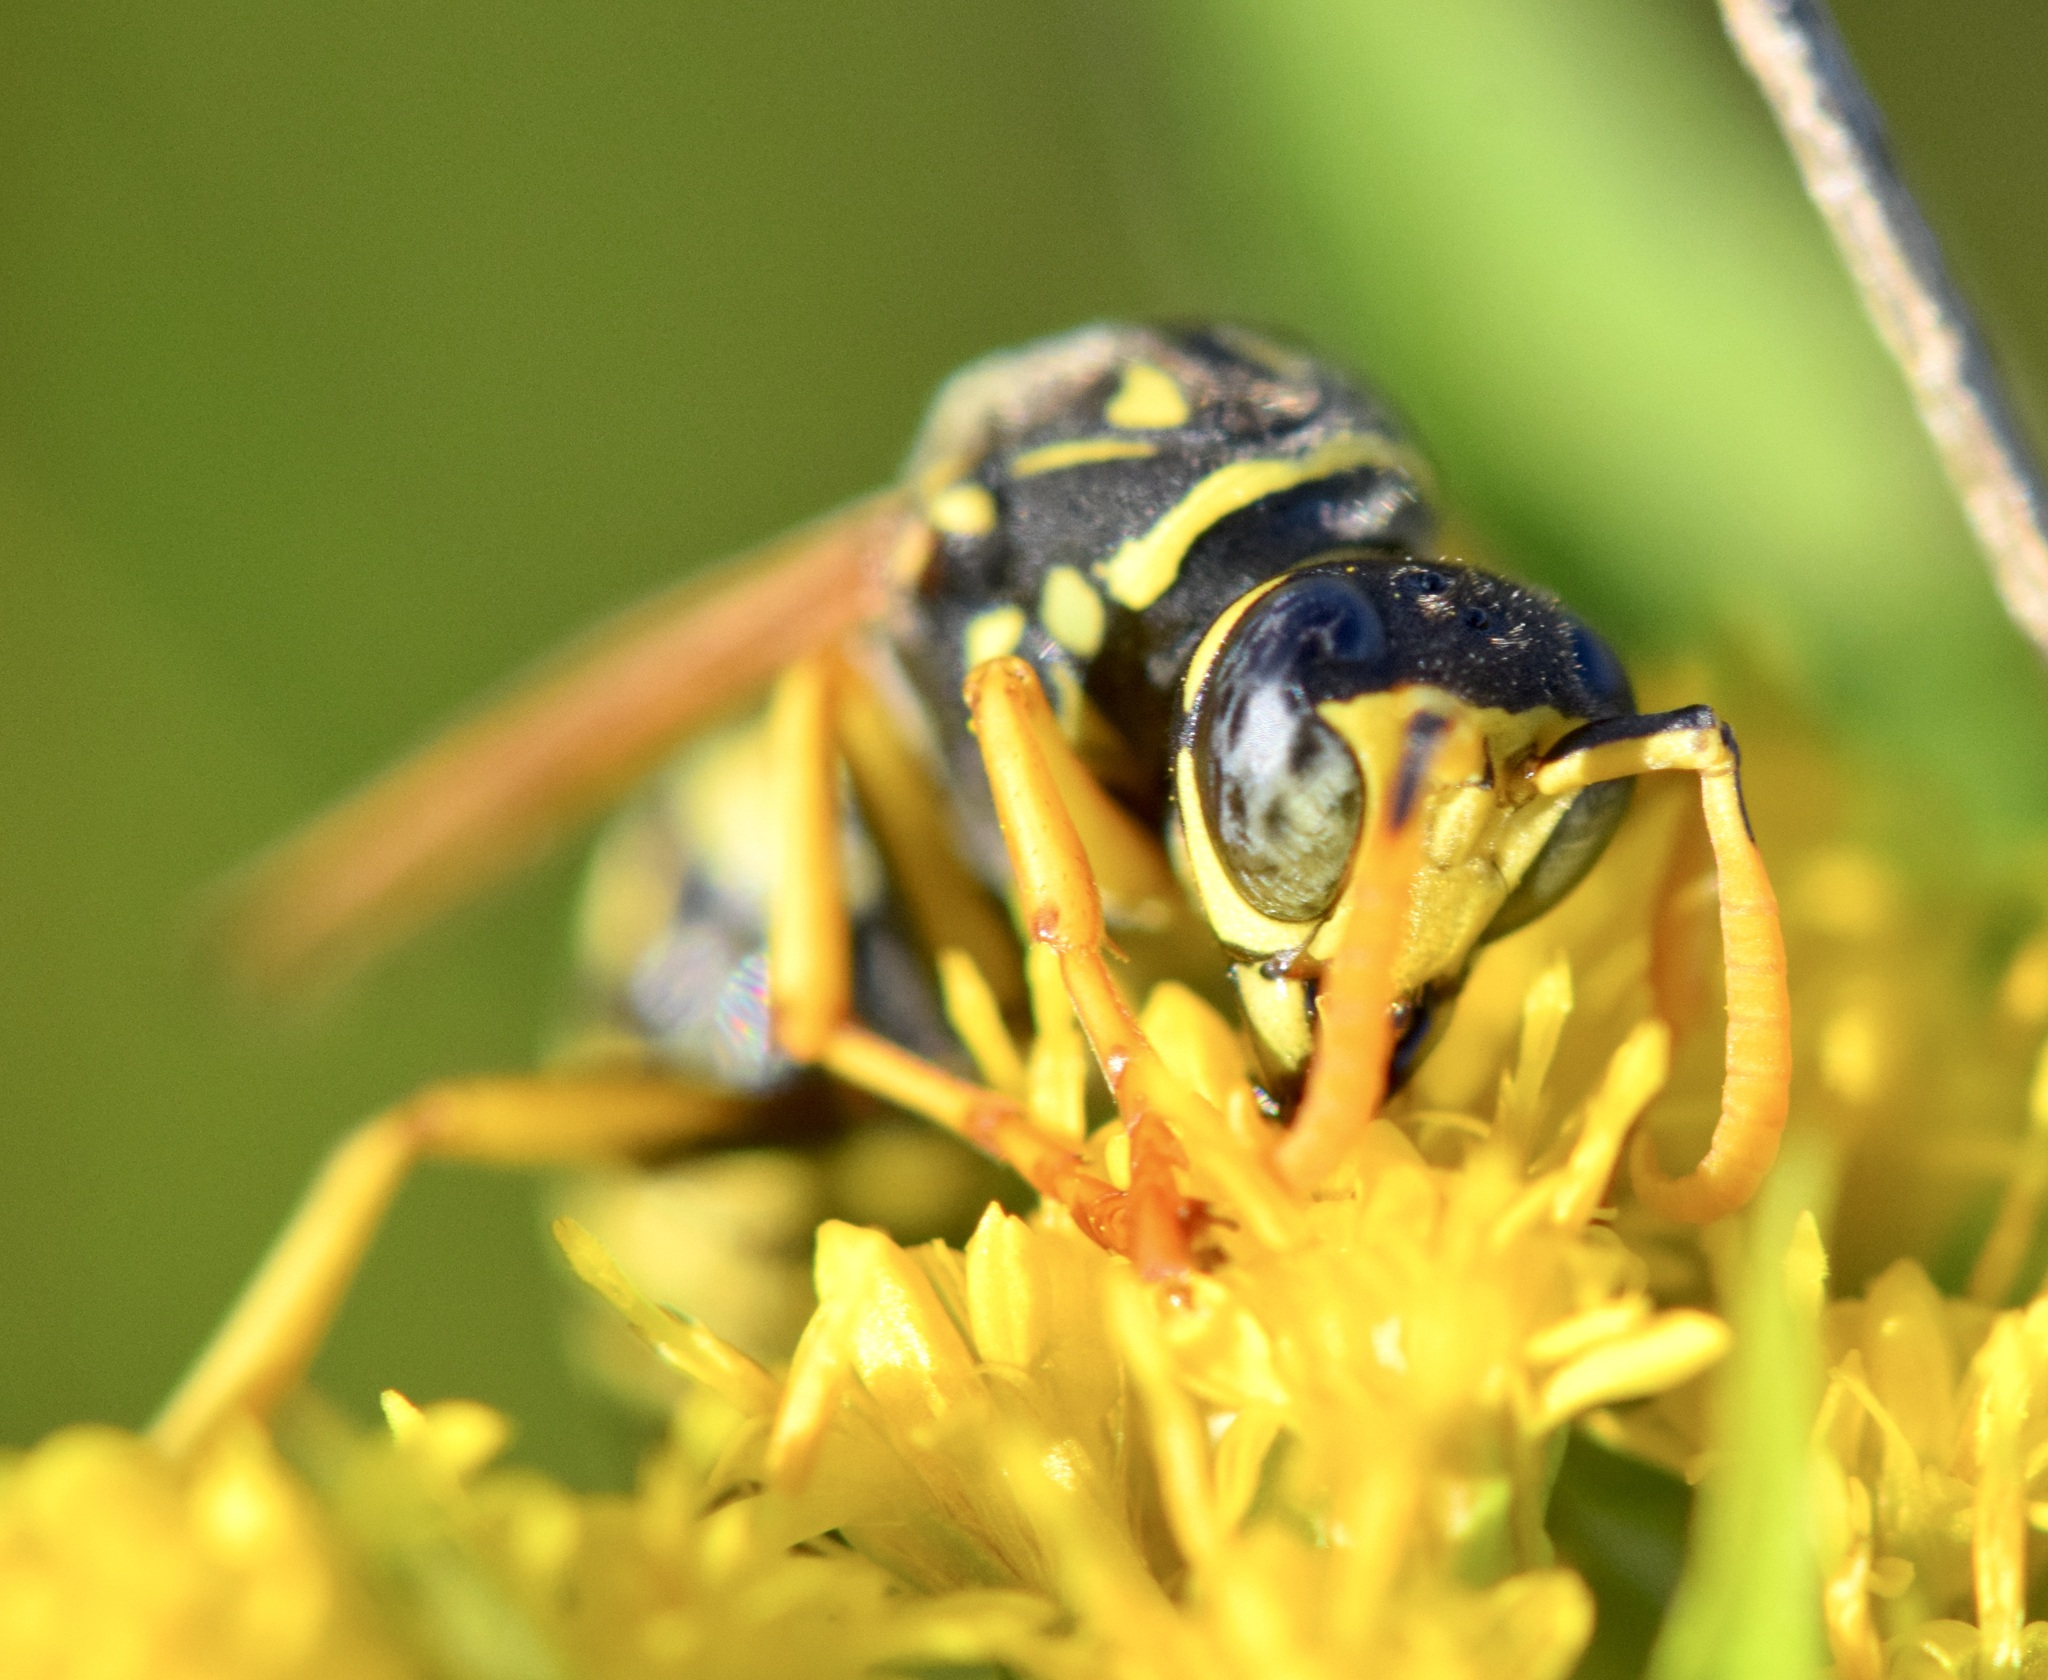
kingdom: Animalia
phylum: Arthropoda
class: Insecta
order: Hymenoptera
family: Eumenidae
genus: Polistes
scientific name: Polistes dominula
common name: Paper wasp
